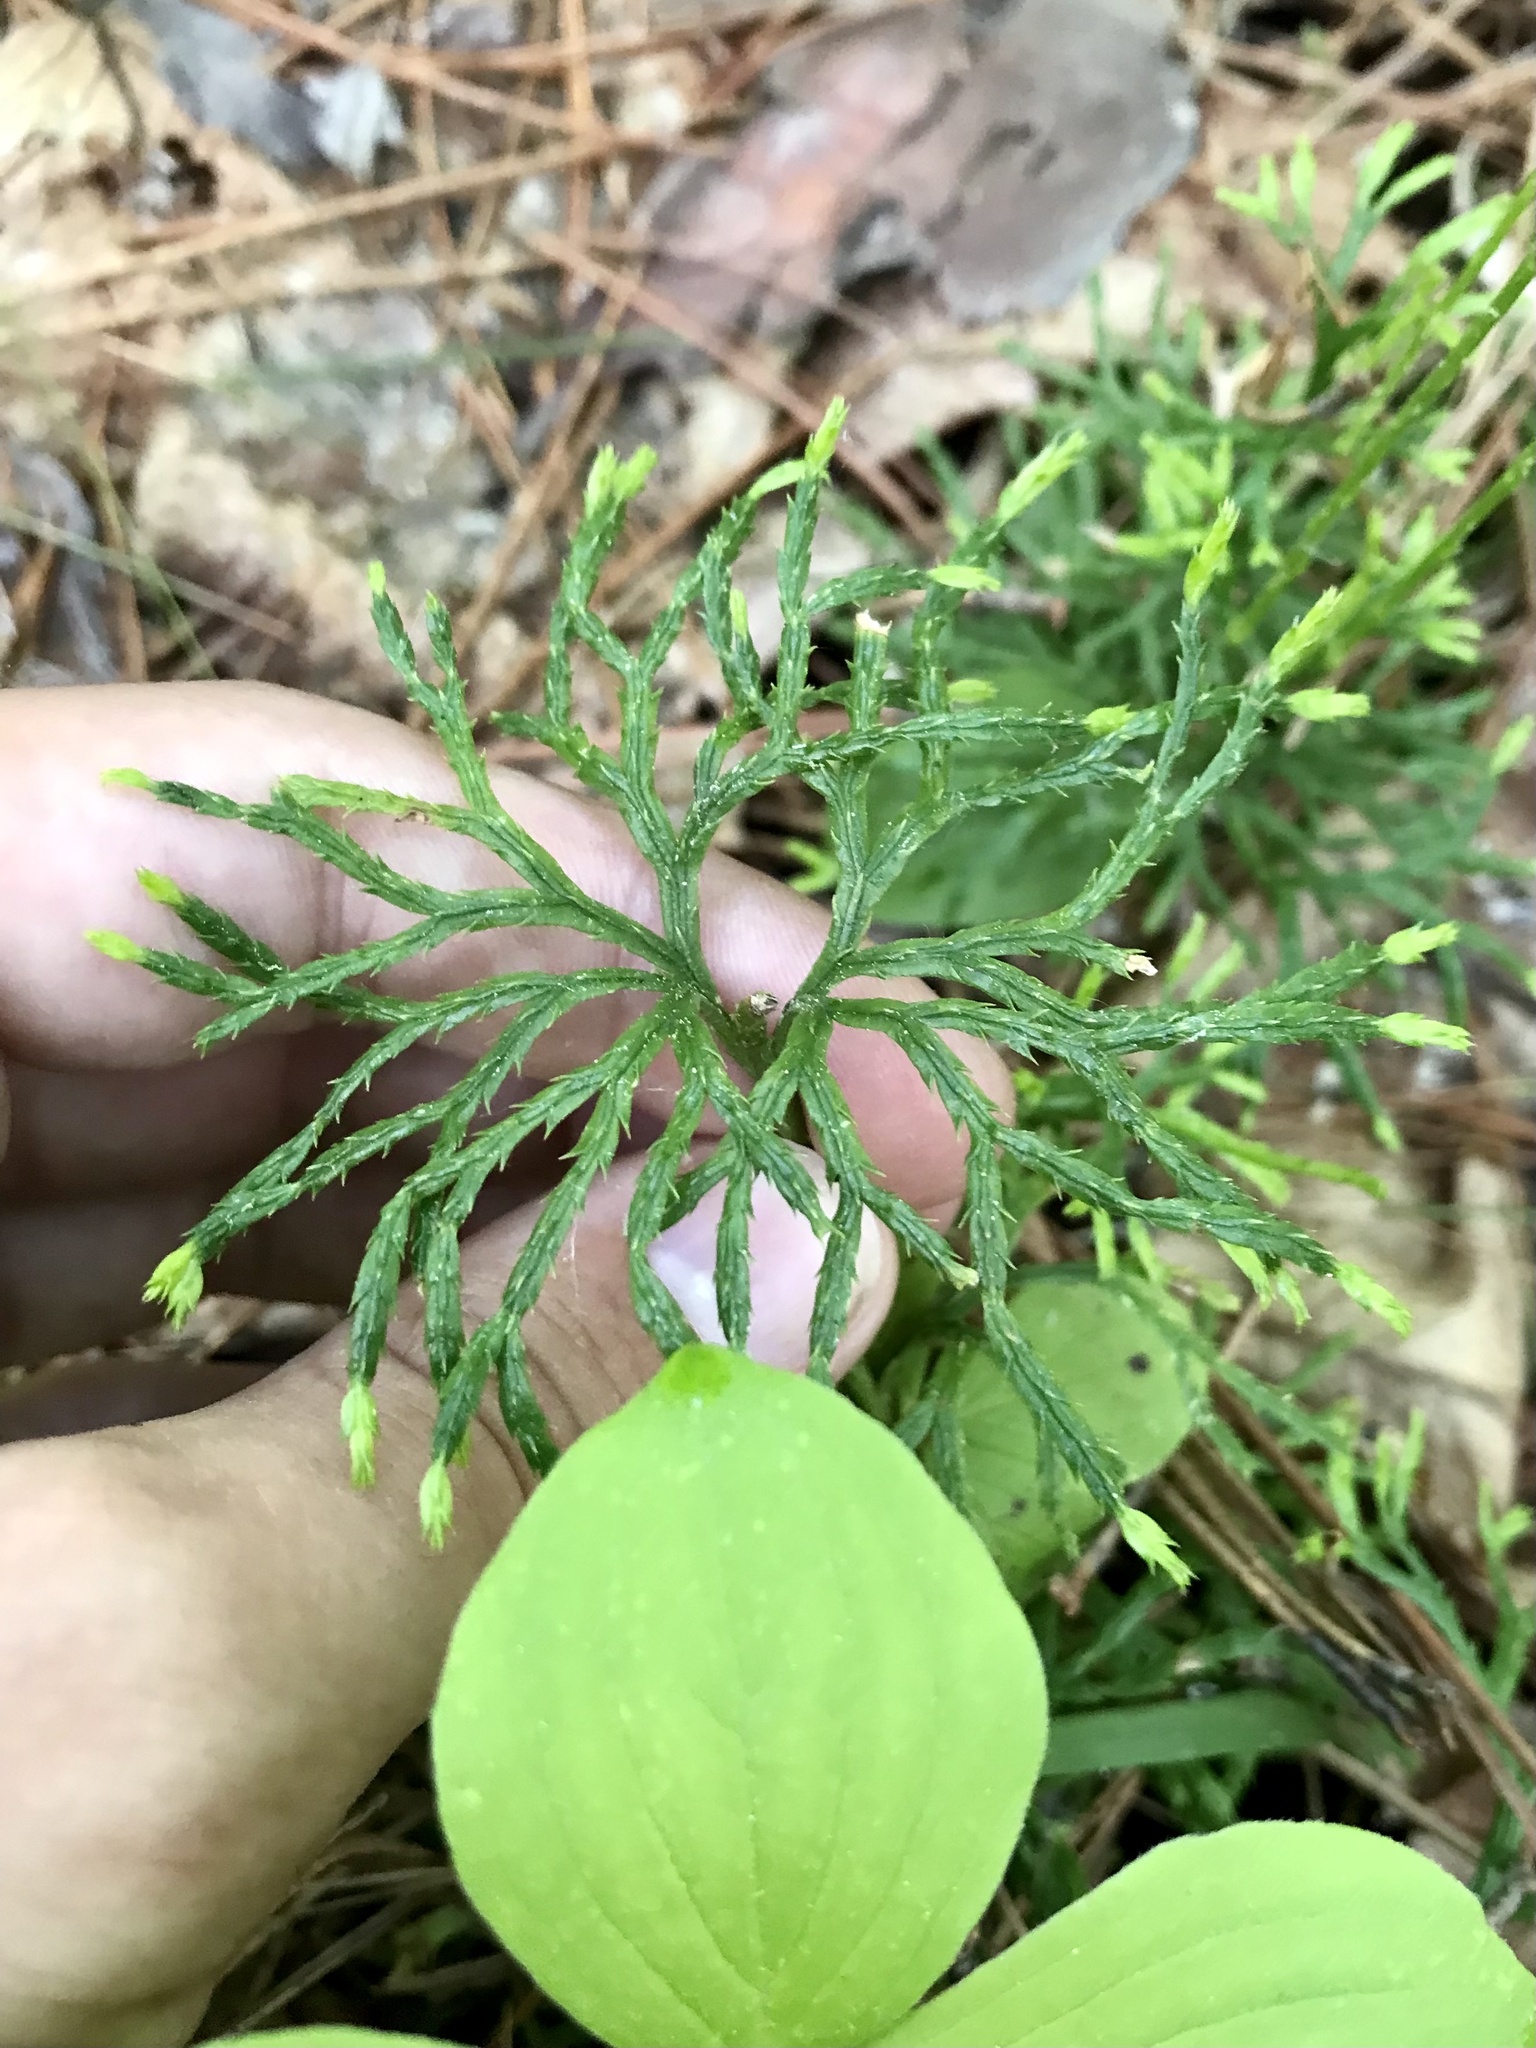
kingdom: Plantae
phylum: Tracheophyta
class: Lycopodiopsida
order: Lycopodiales
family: Lycopodiaceae
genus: Diphasiastrum
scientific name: Diphasiastrum complanatum
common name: Northern running-pine
